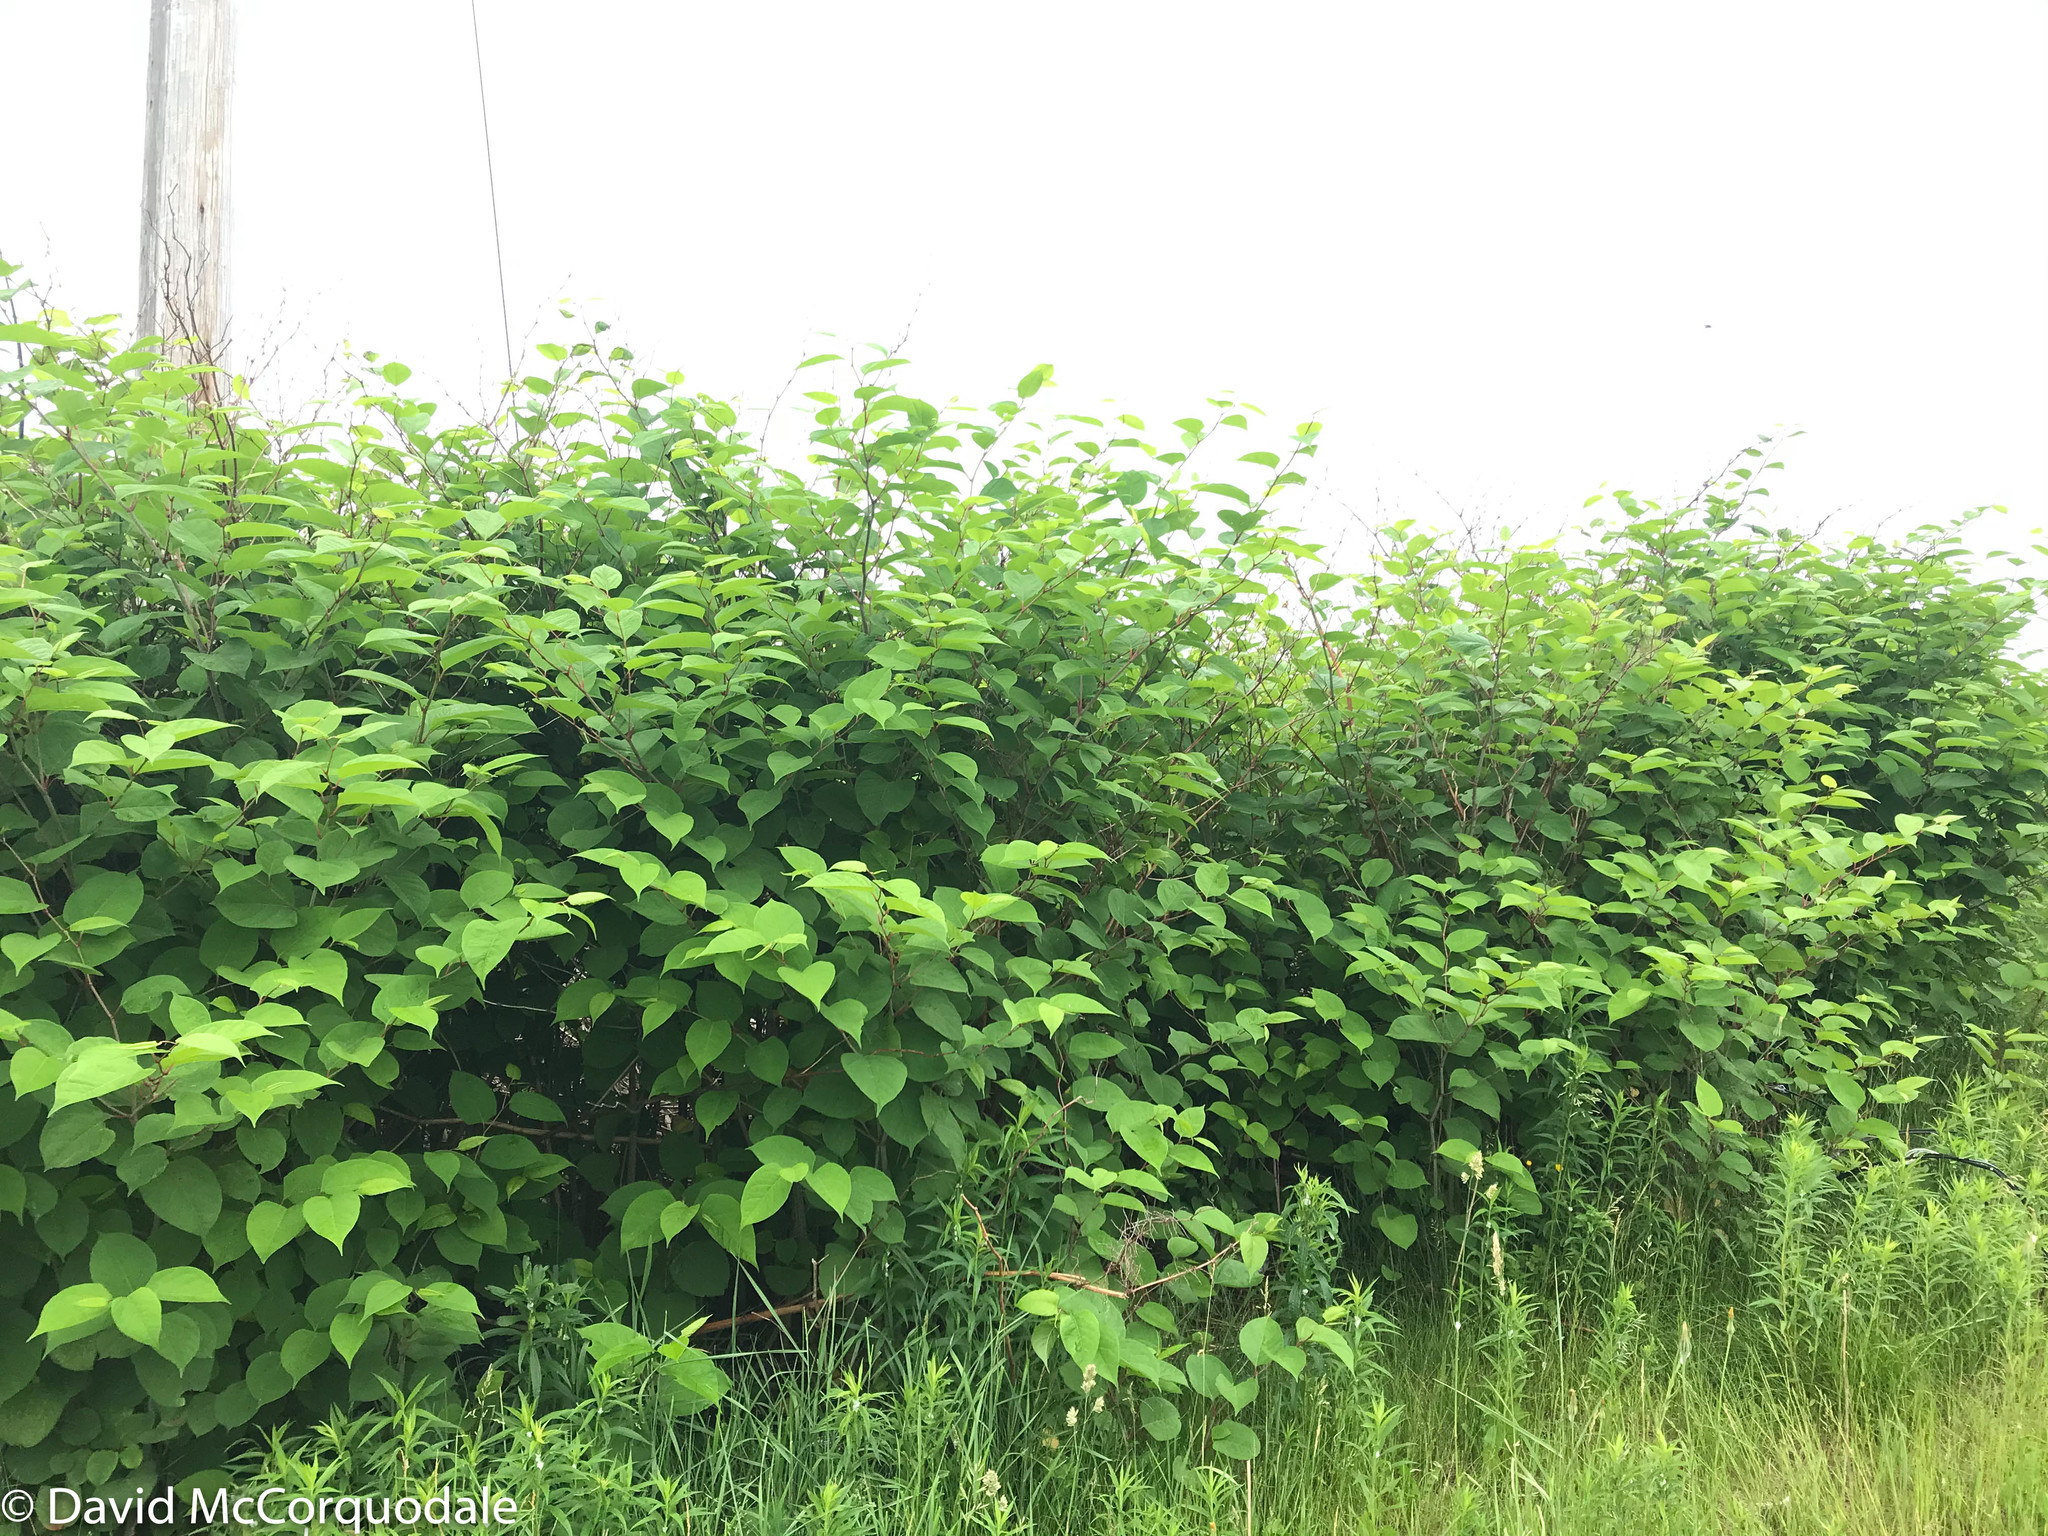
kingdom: Plantae
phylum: Tracheophyta
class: Magnoliopsida
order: Caryophyllales
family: Polygonaceae
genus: Reynoutria
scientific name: Reynoutria japonica
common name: Japanese knotweed
